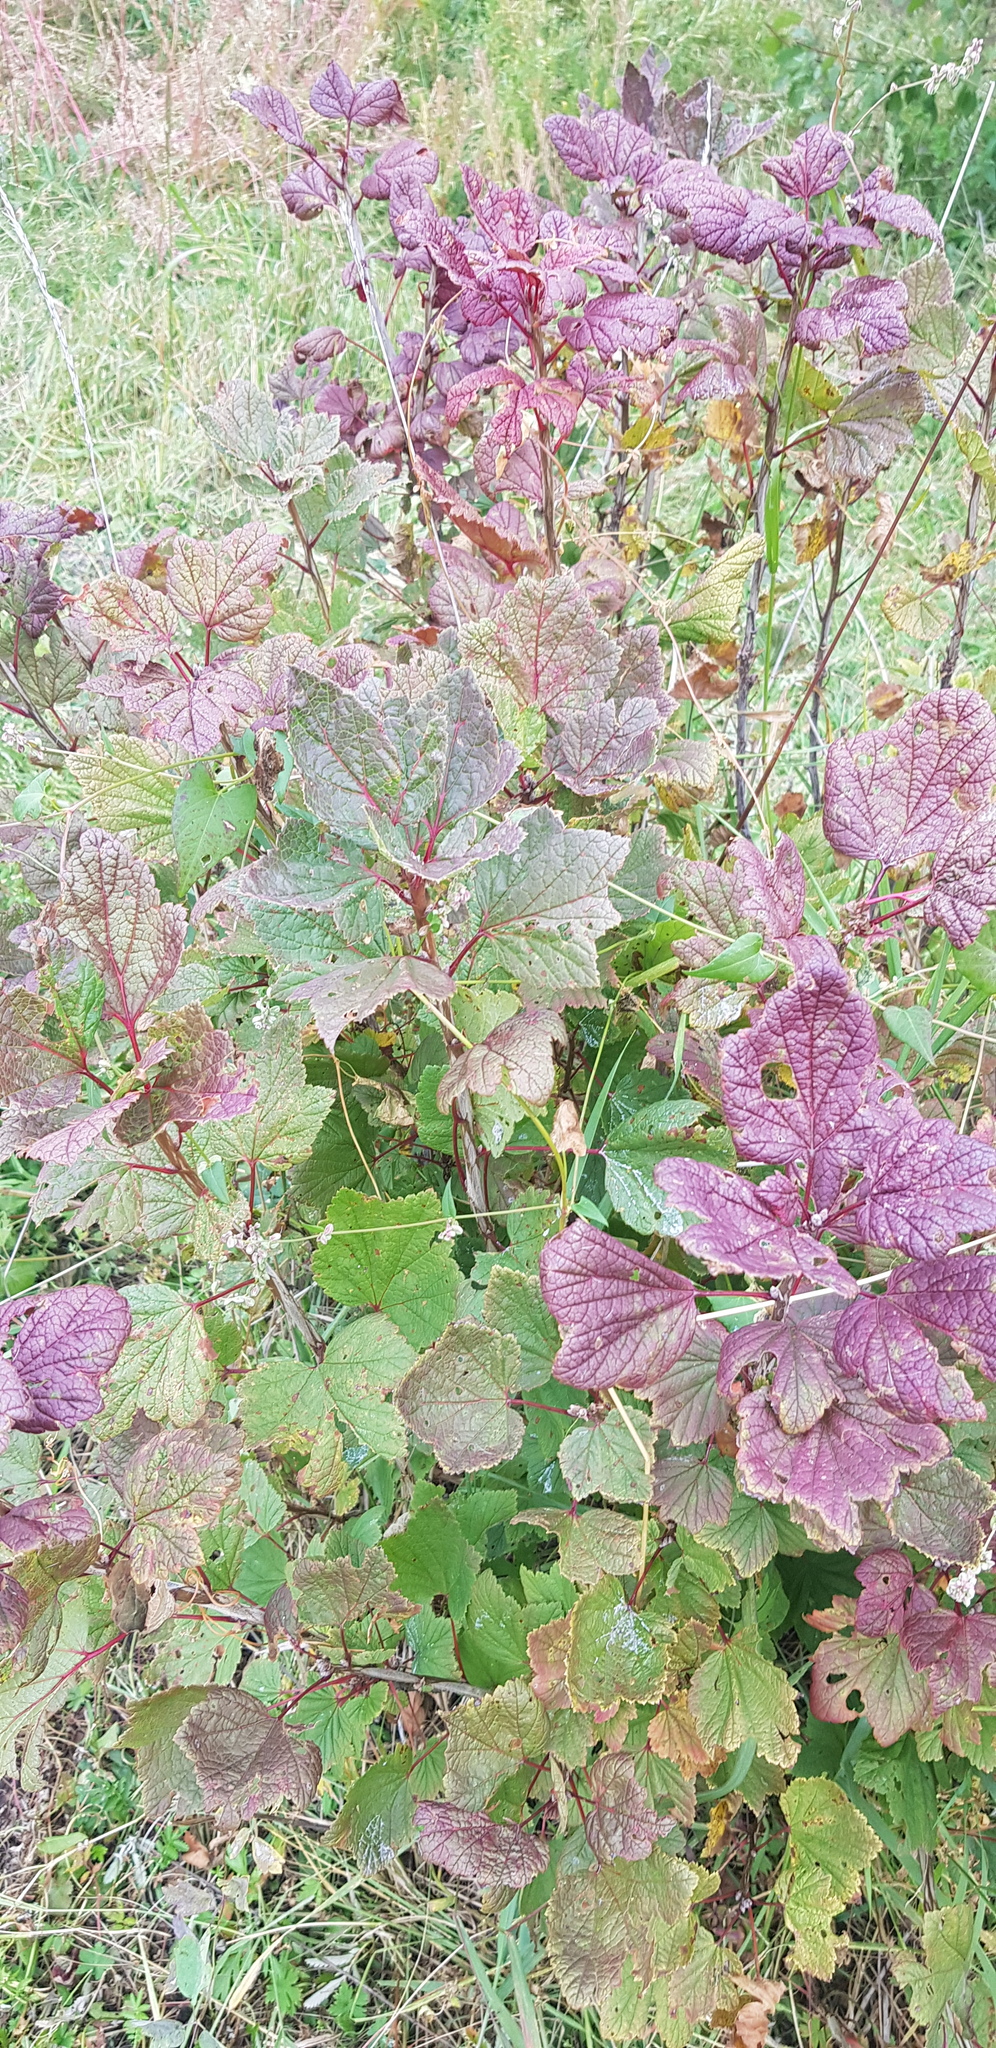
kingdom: Plantae
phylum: Tracheophyta
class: Magnoliopsida
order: Saxifragales
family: Grossulariaceae
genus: Ribes
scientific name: Ribes spicatum
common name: Downy currant
